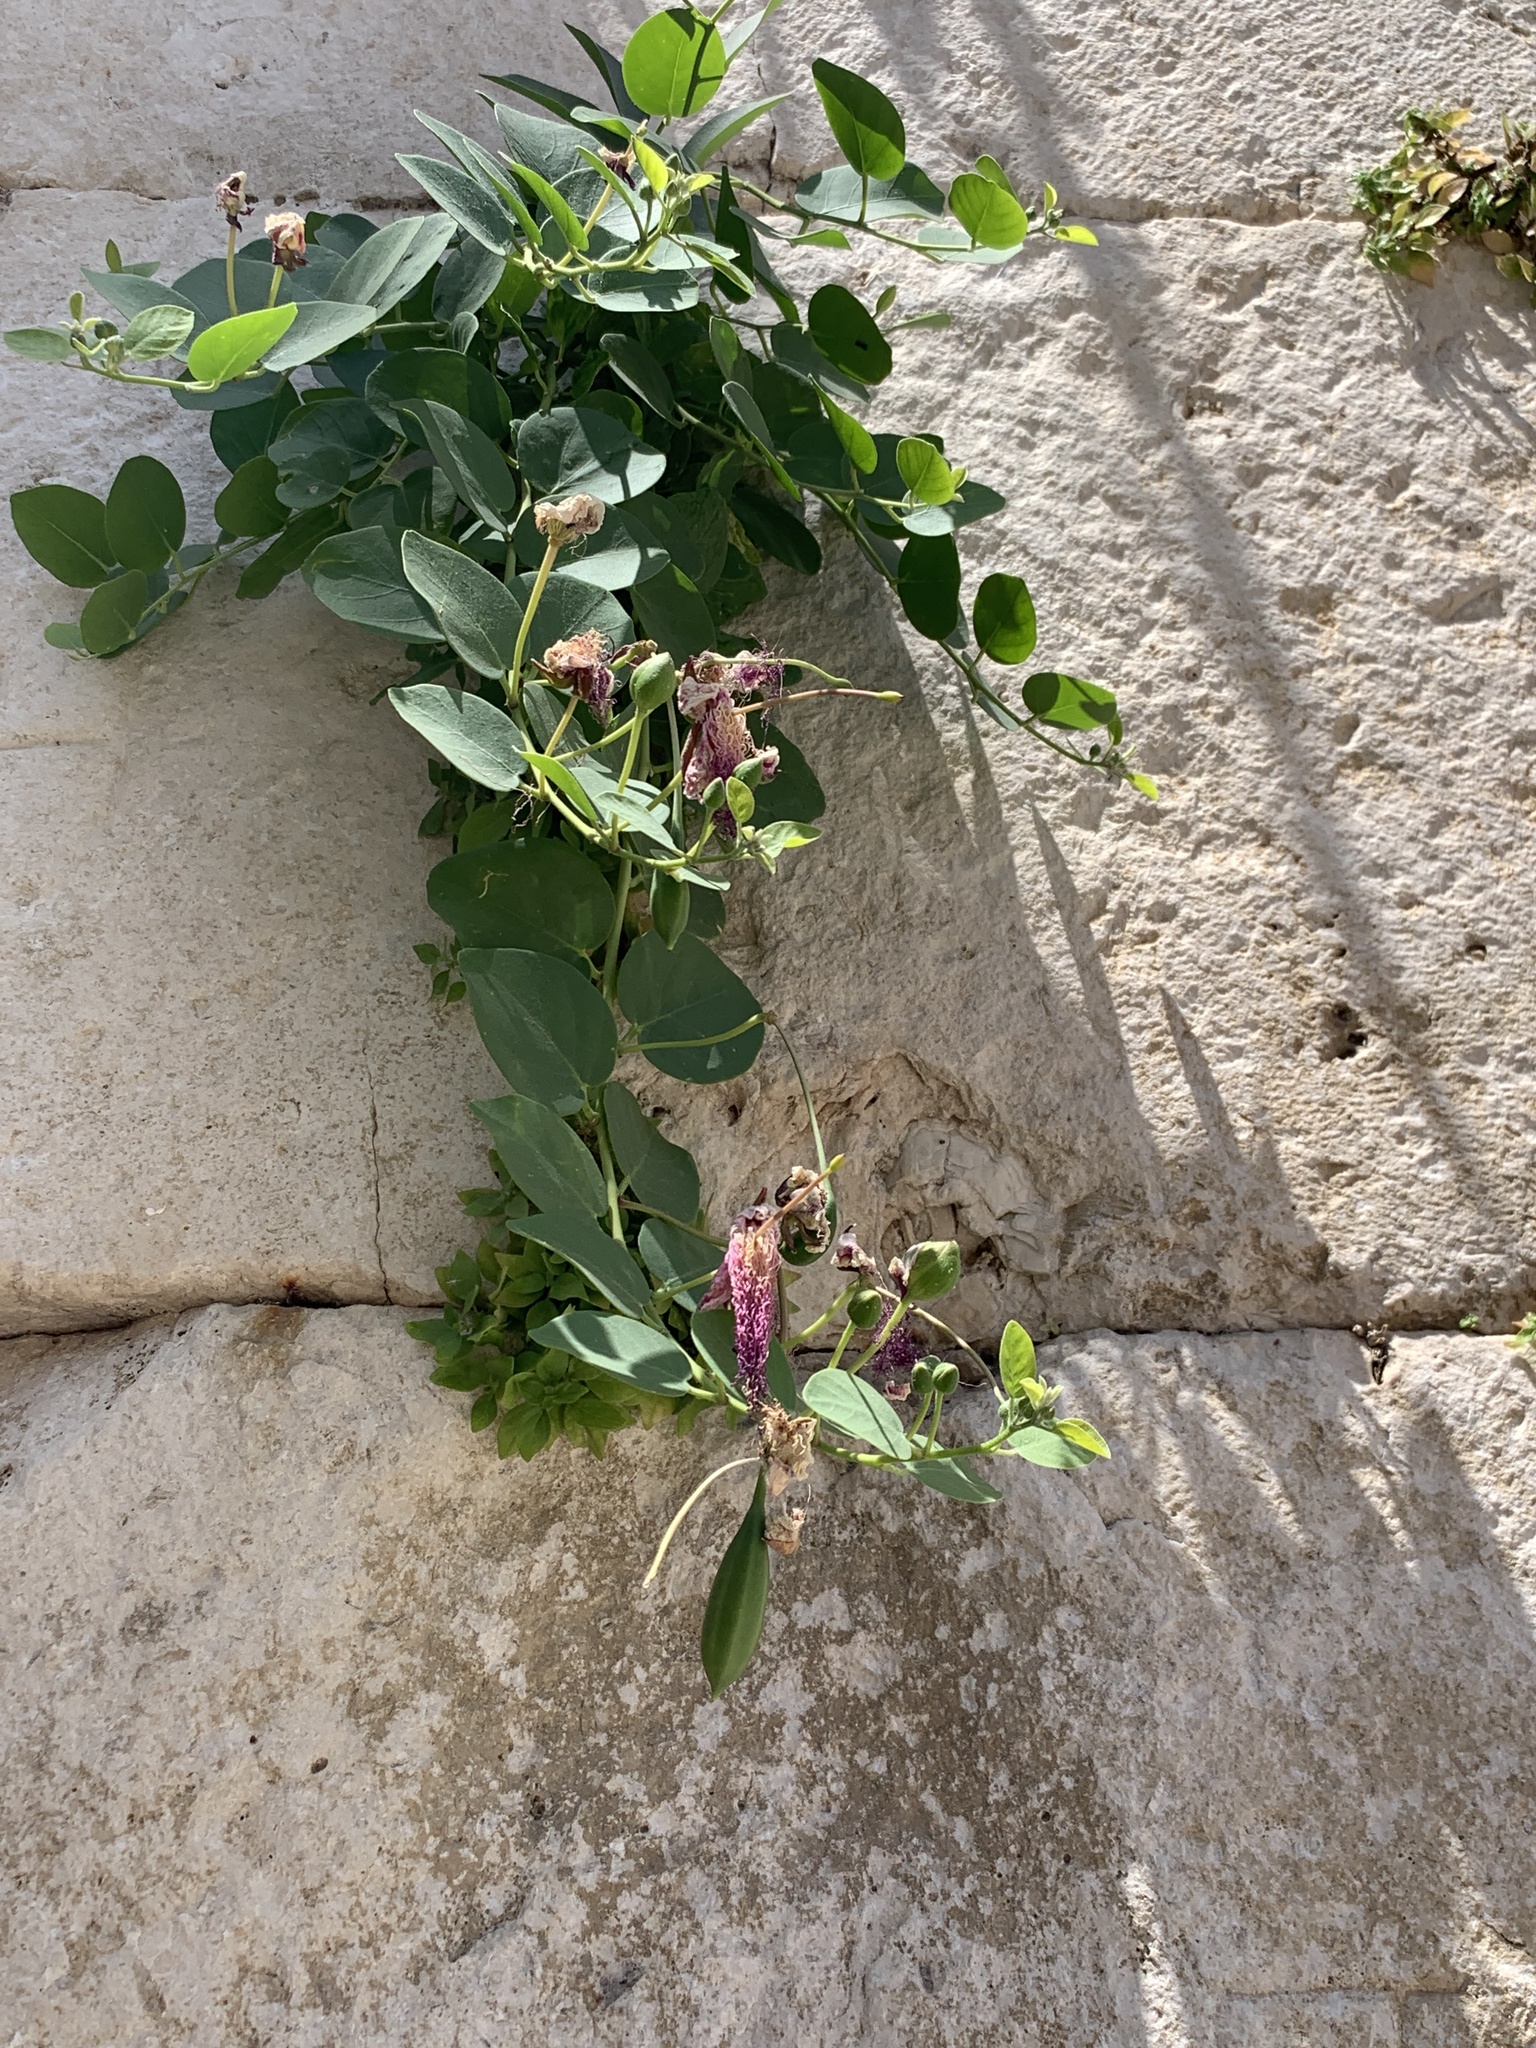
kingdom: Plantae
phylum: Tracheophyta
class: Magnoliopsida
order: Brassicales
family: Capparaceae
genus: Capparis
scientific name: Capparis orientalis
